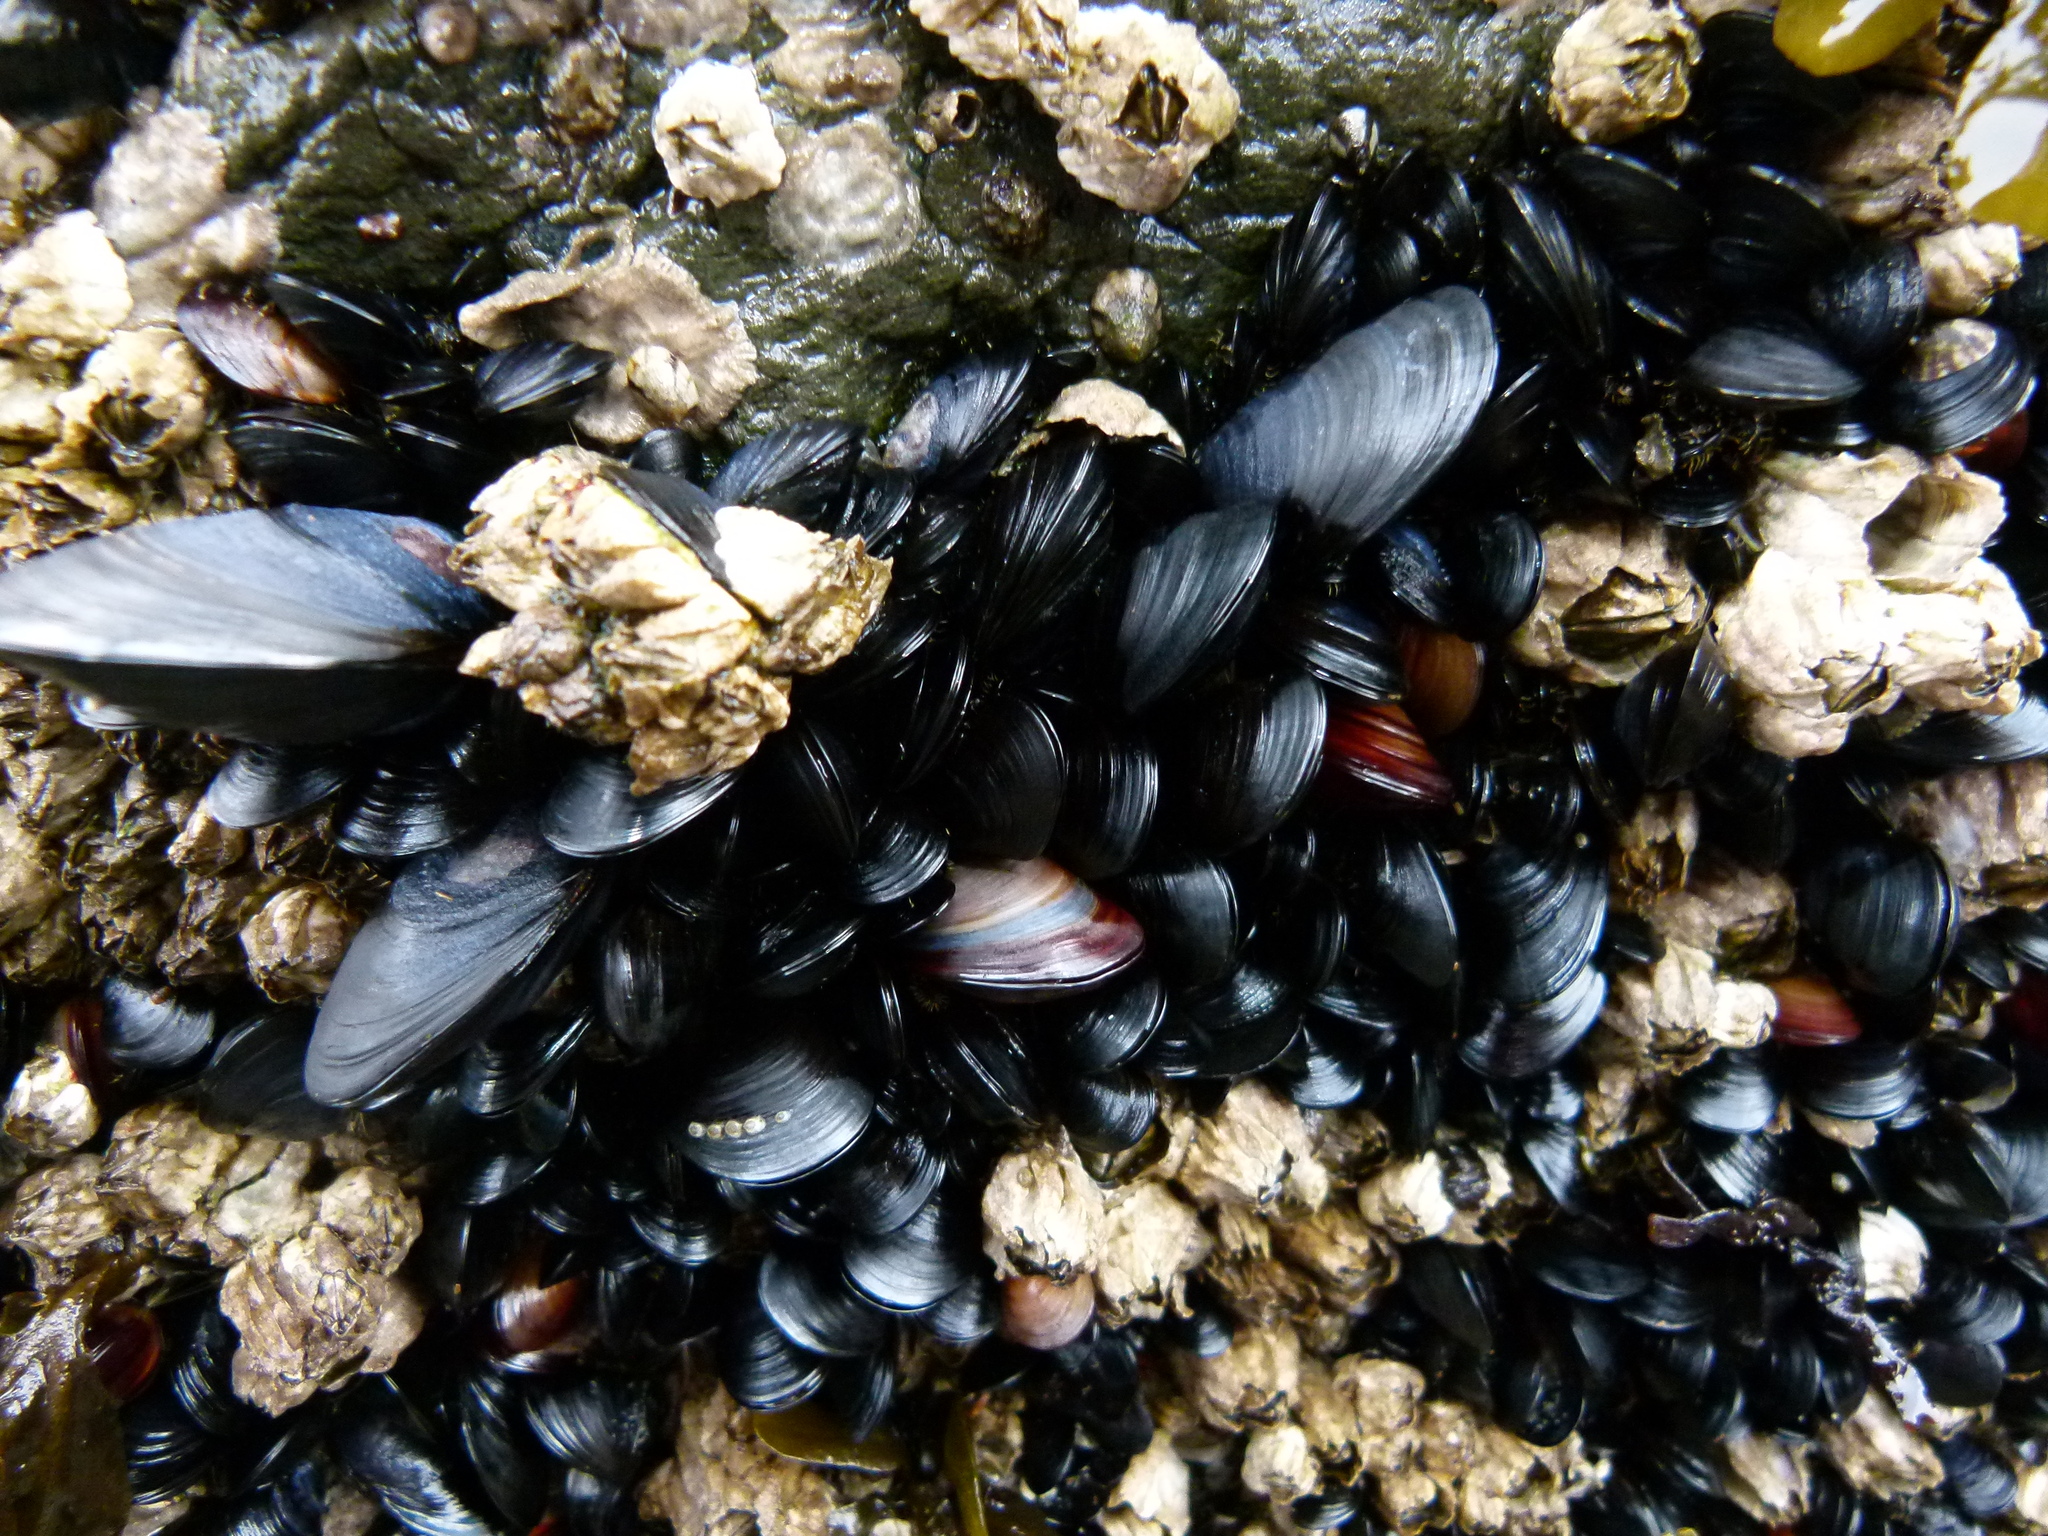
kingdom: Animalia
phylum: Mollusca
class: Bivalvia
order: Mytilida
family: Mytilidae
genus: Mytilus
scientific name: Mytilus
